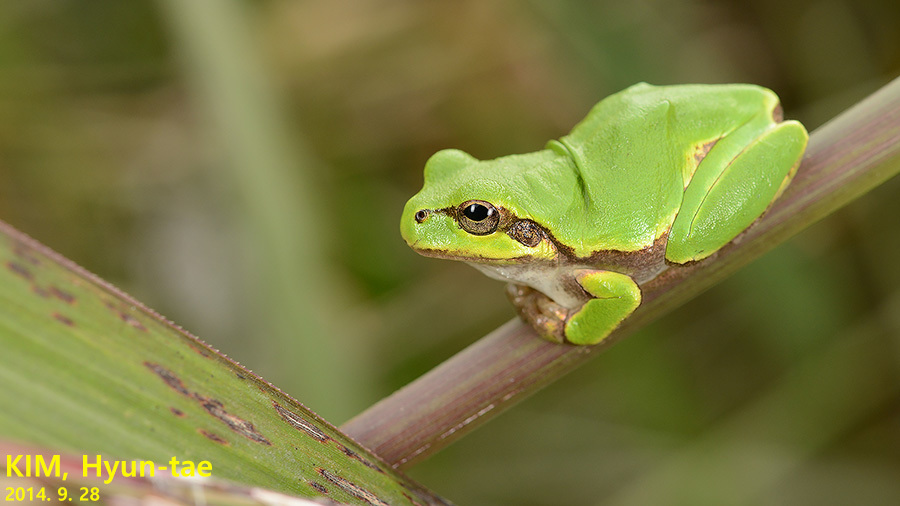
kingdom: Animalia
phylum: Chordata
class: Amphibia
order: Anura
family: Hylidae
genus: Dryophytes
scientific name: Dryophytes japonicus
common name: Japanese treefrog
